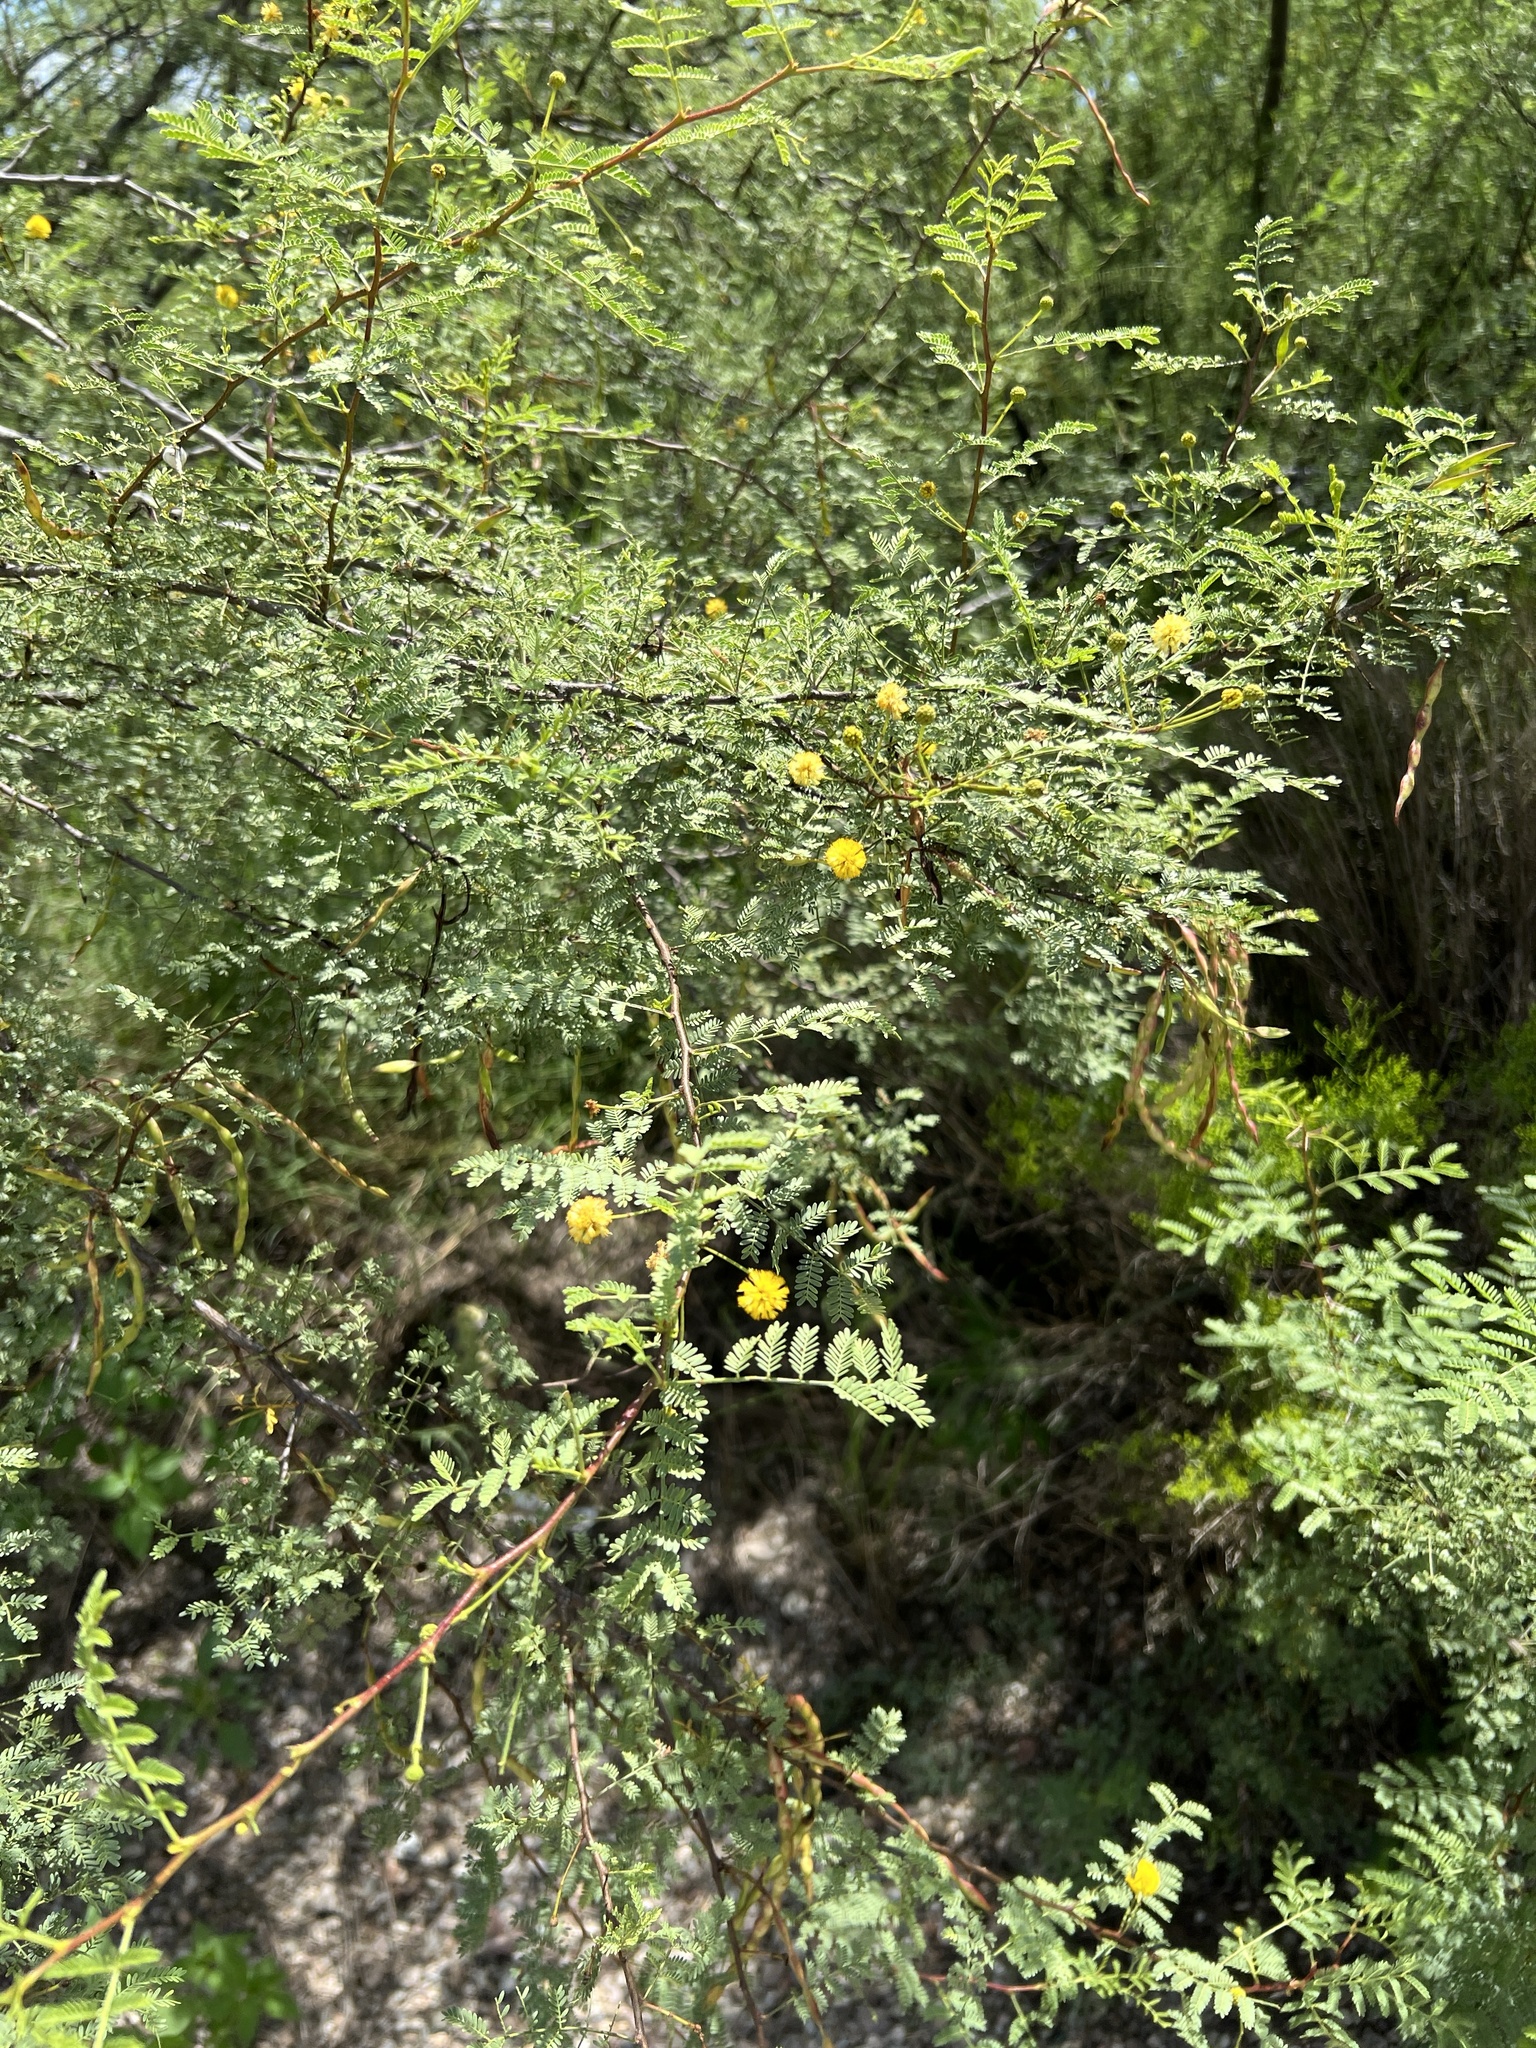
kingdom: Plantae
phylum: Tracheophyta
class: Magnoliopsida
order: Fabales
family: Fabaceae
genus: Vachellia
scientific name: Vachellia constricta
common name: Mescat acacia
